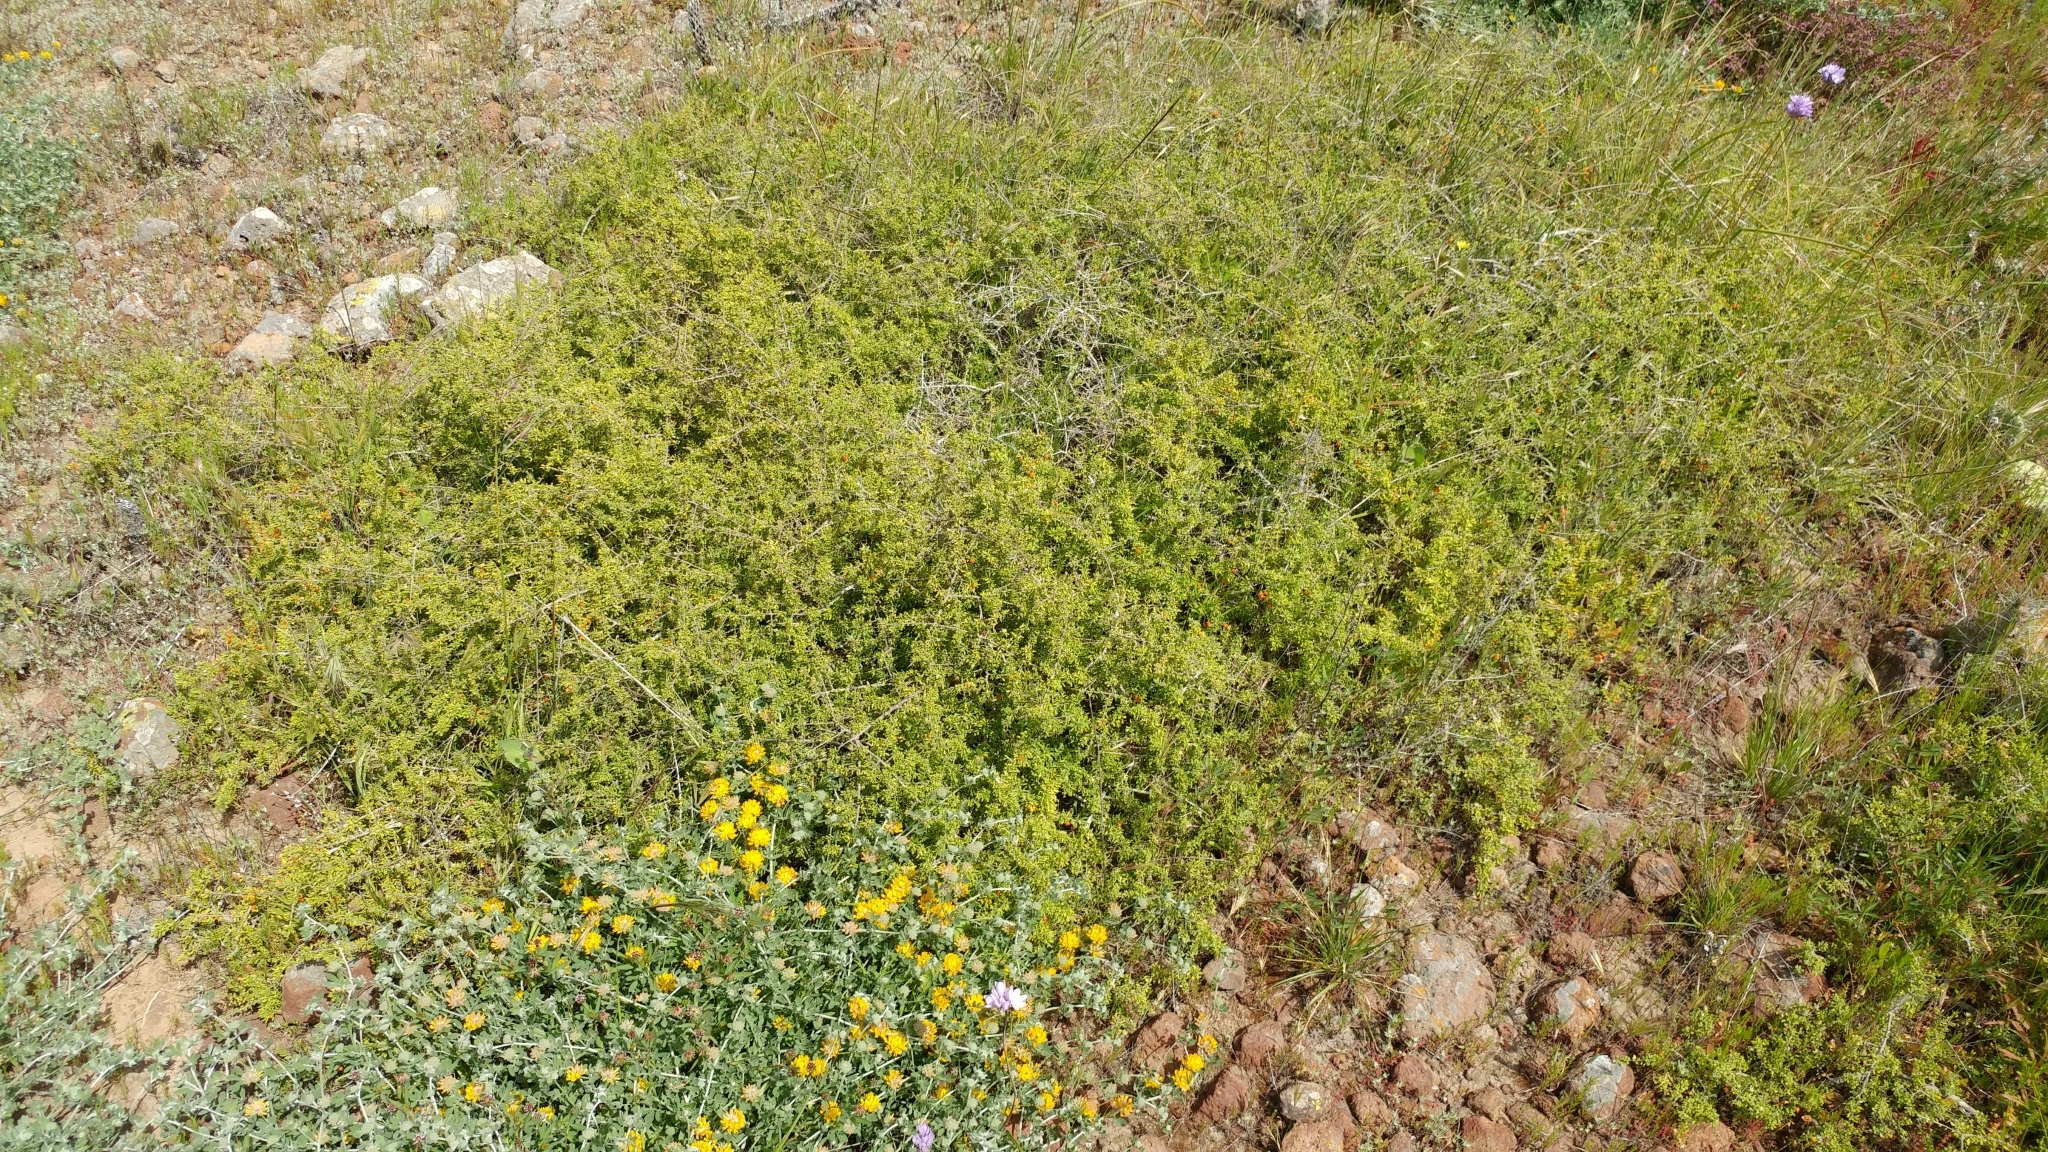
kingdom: Plantae
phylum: Tracheophyta
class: Magnoliopsida
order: Solanales
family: Solanaceae
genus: Lycium
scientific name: Lycium californicum
